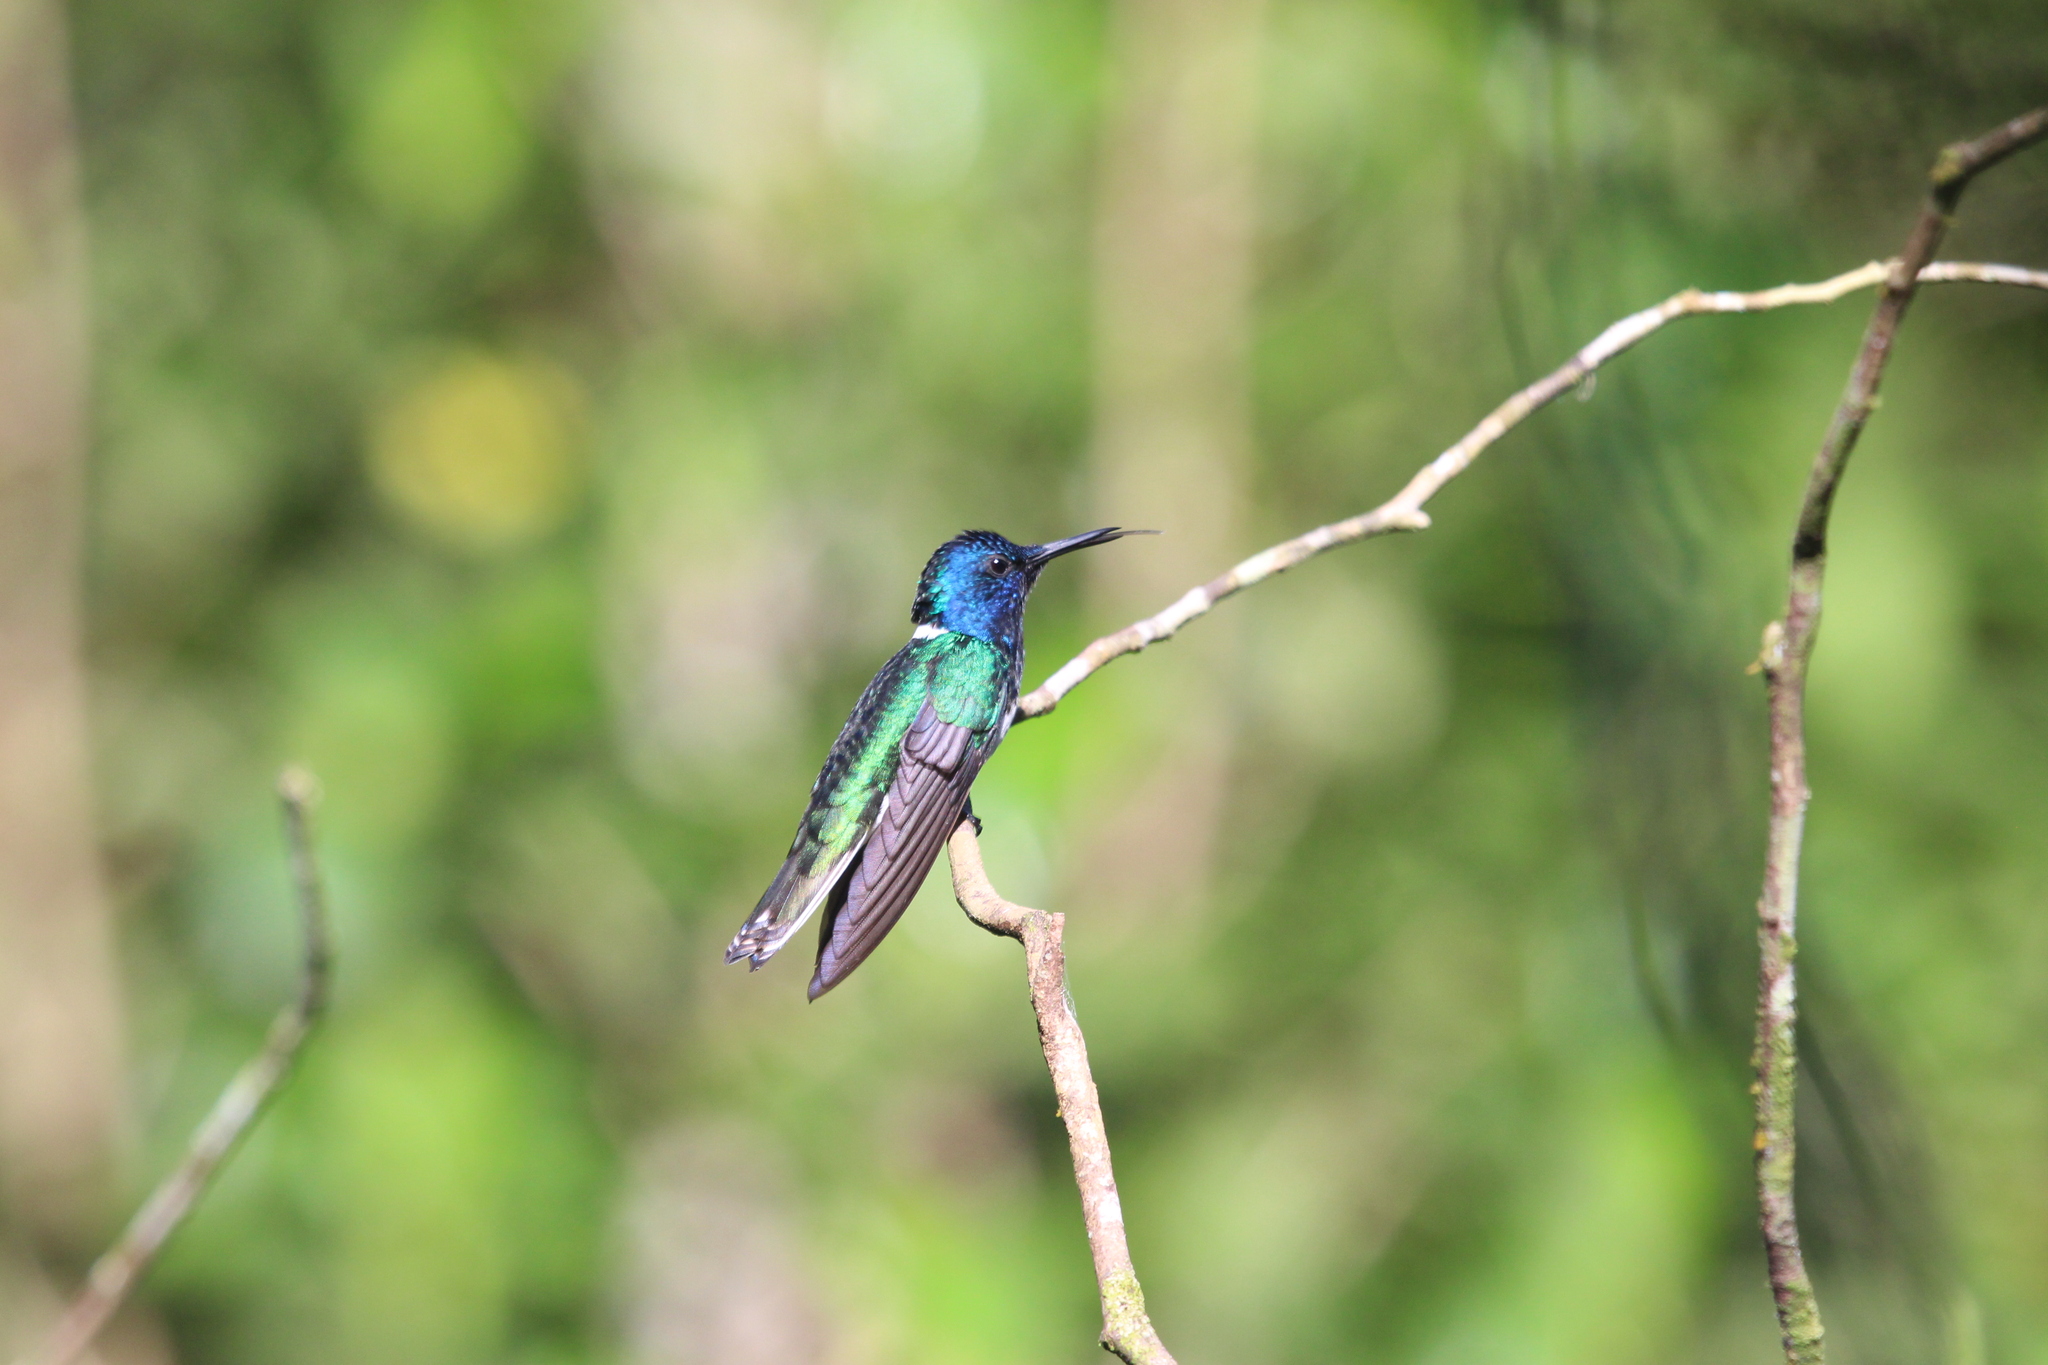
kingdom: Animalia
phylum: Chordata
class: Aves
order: Apodiformes
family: Trochilidae
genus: Florisuga
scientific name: Florisuga mellivora
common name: White-necked jacobin
